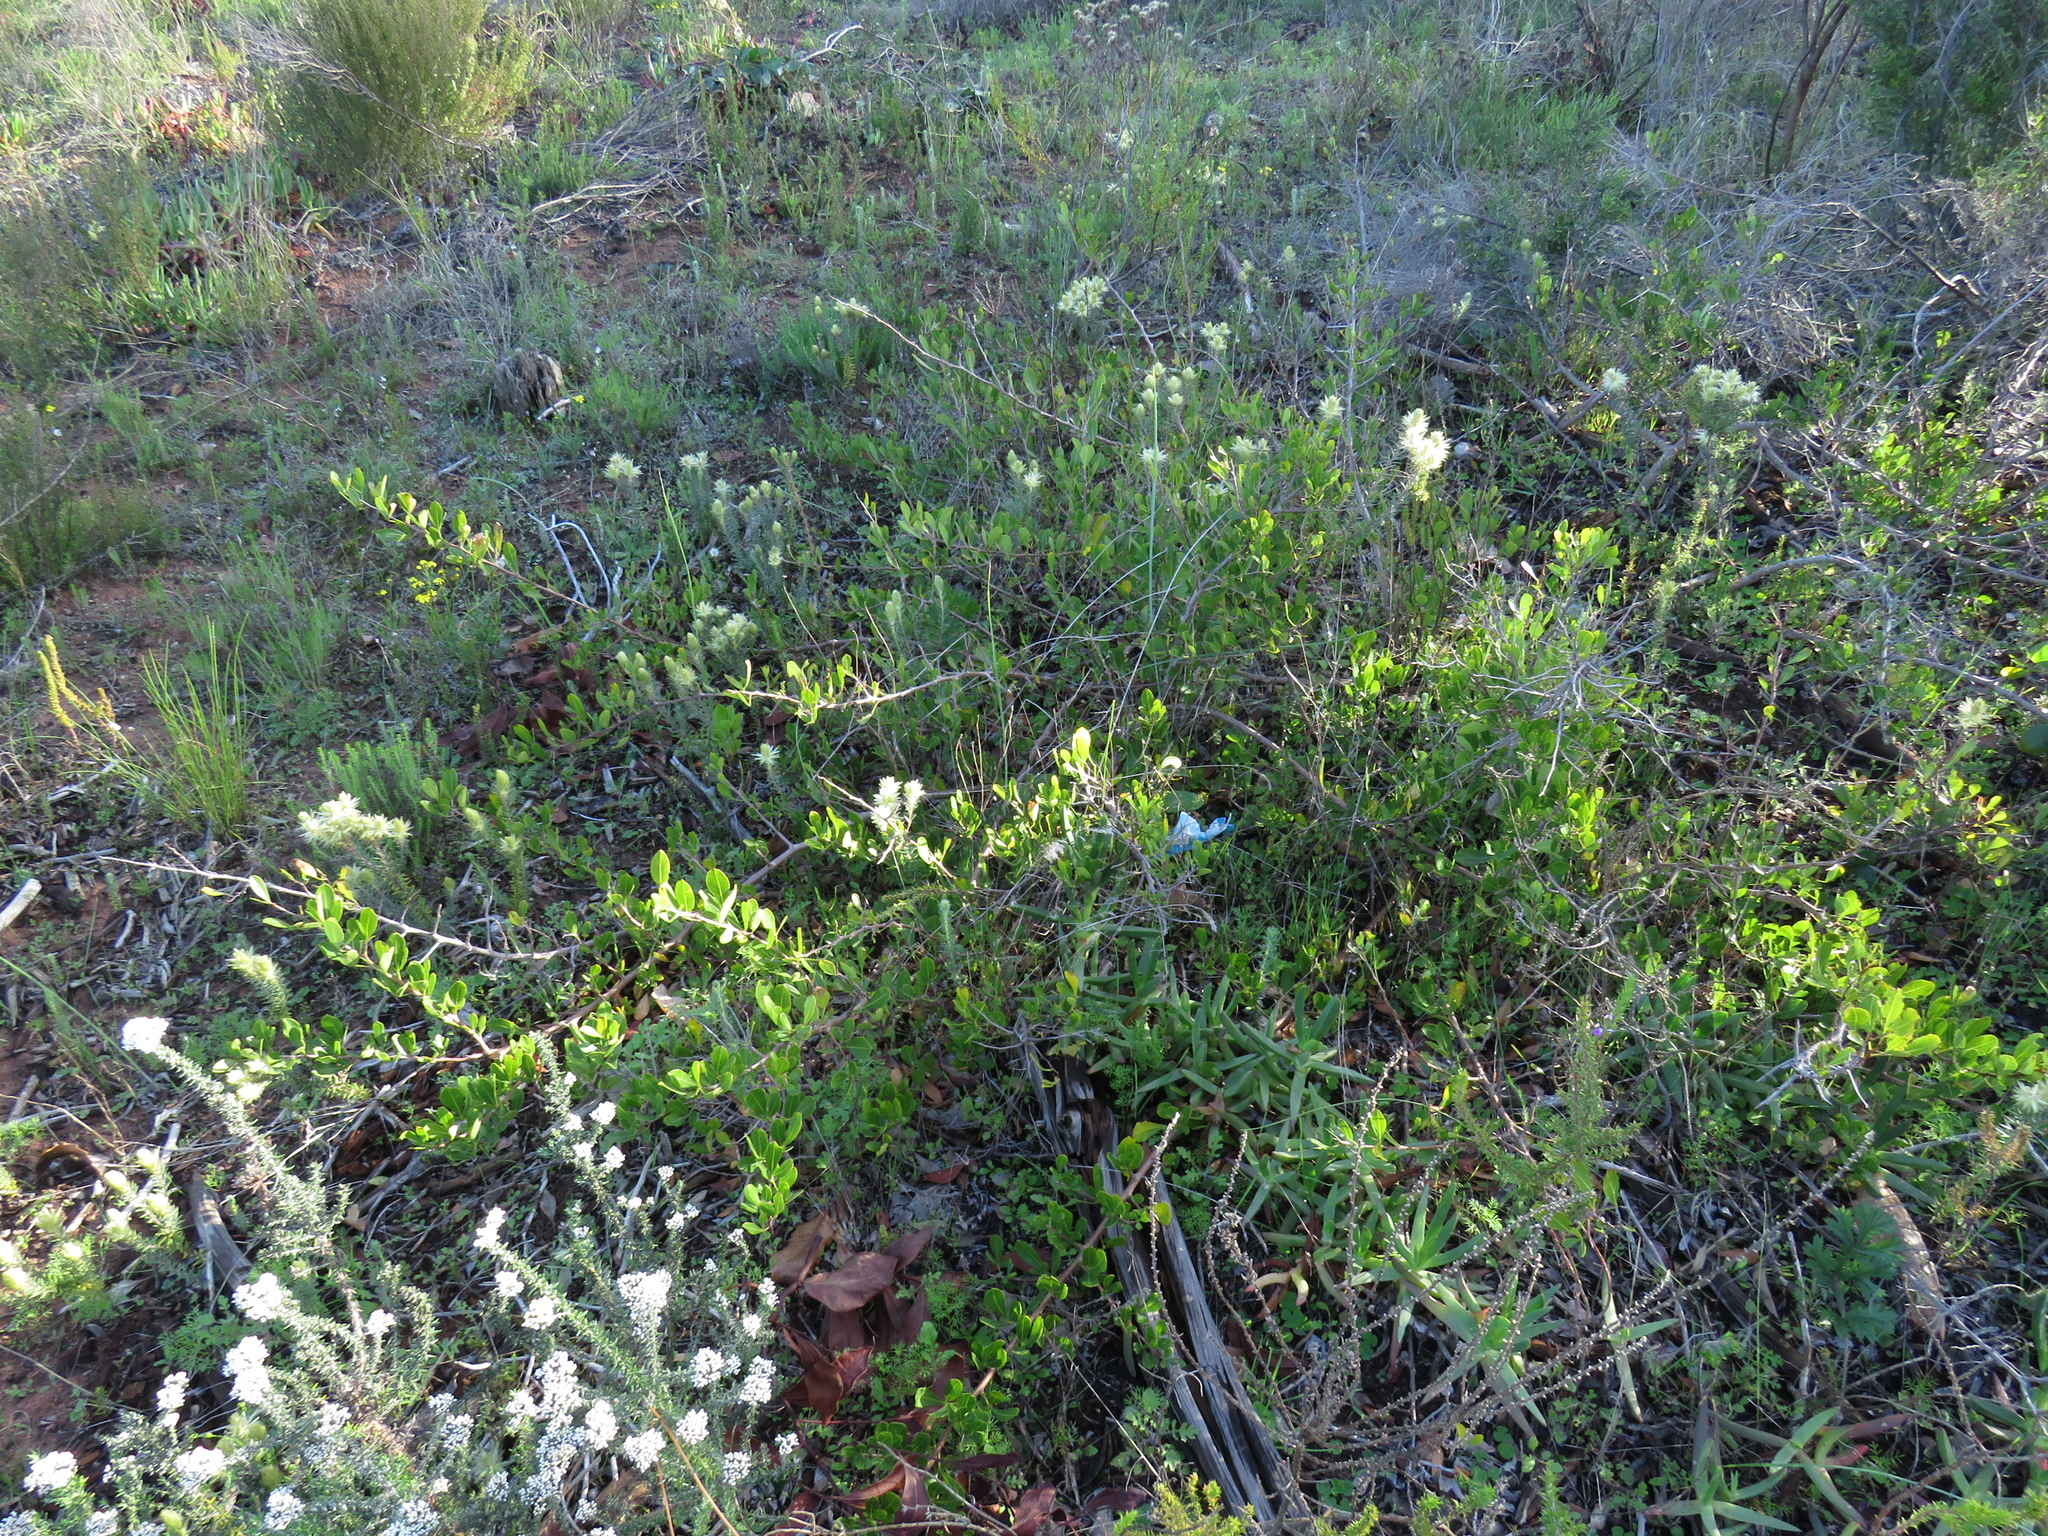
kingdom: Plantae
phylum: Tracheophyta
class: Magnoliopsida
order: Sapindales
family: Anacardiaceae
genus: Searsia
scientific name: Searsia laevigata
